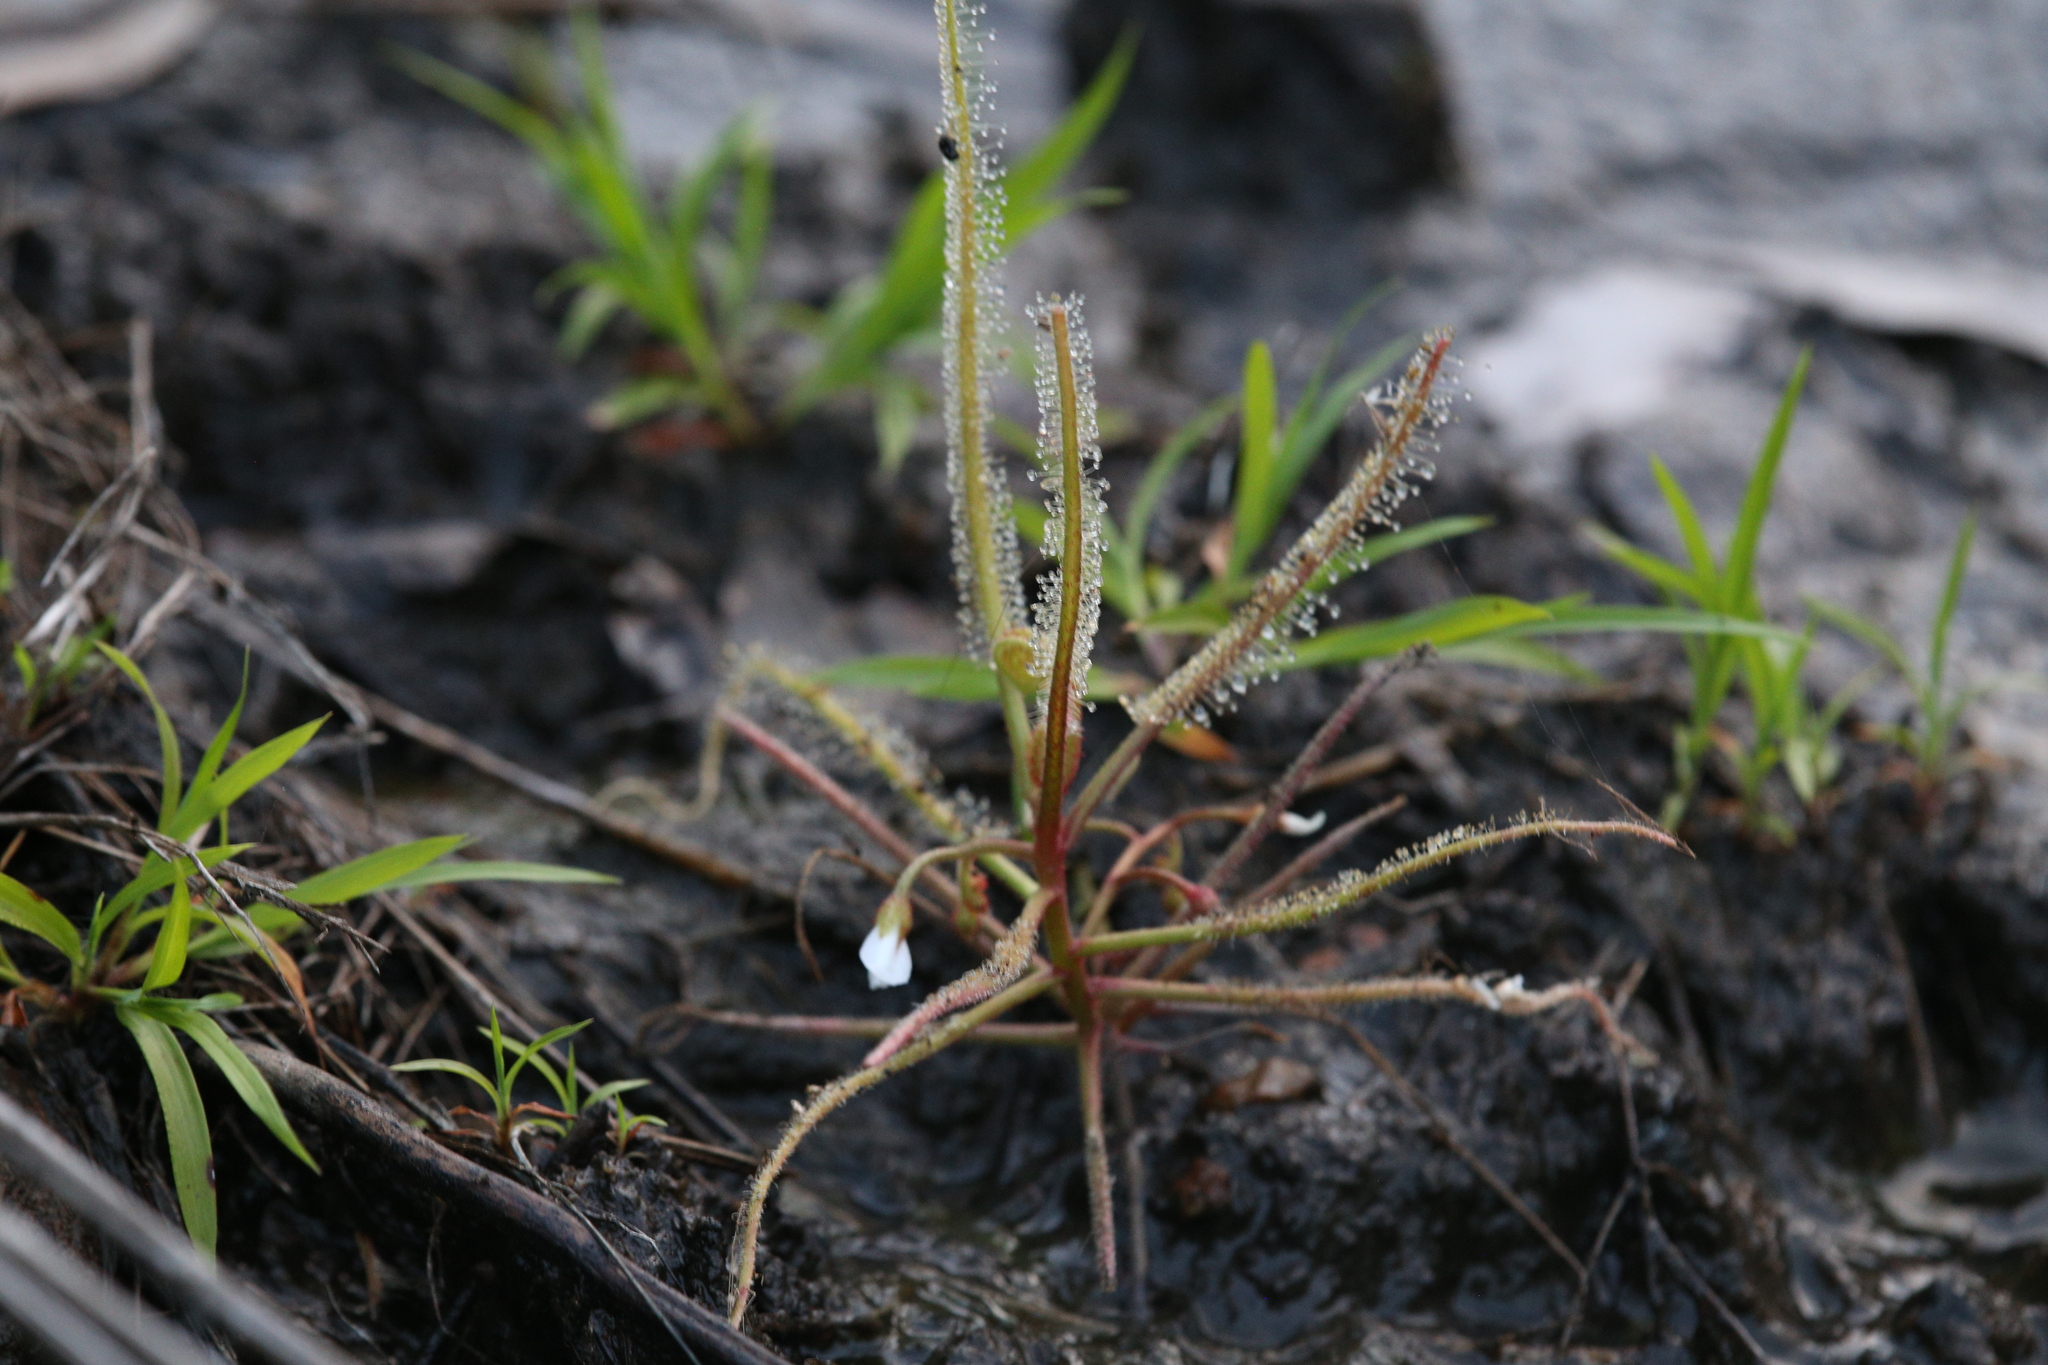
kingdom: Plantae
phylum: Tracheophyta
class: Magnoliopsida
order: Caryophyllales
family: Droseraceae
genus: Drosera
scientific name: Drosera indica
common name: Indian sundew
